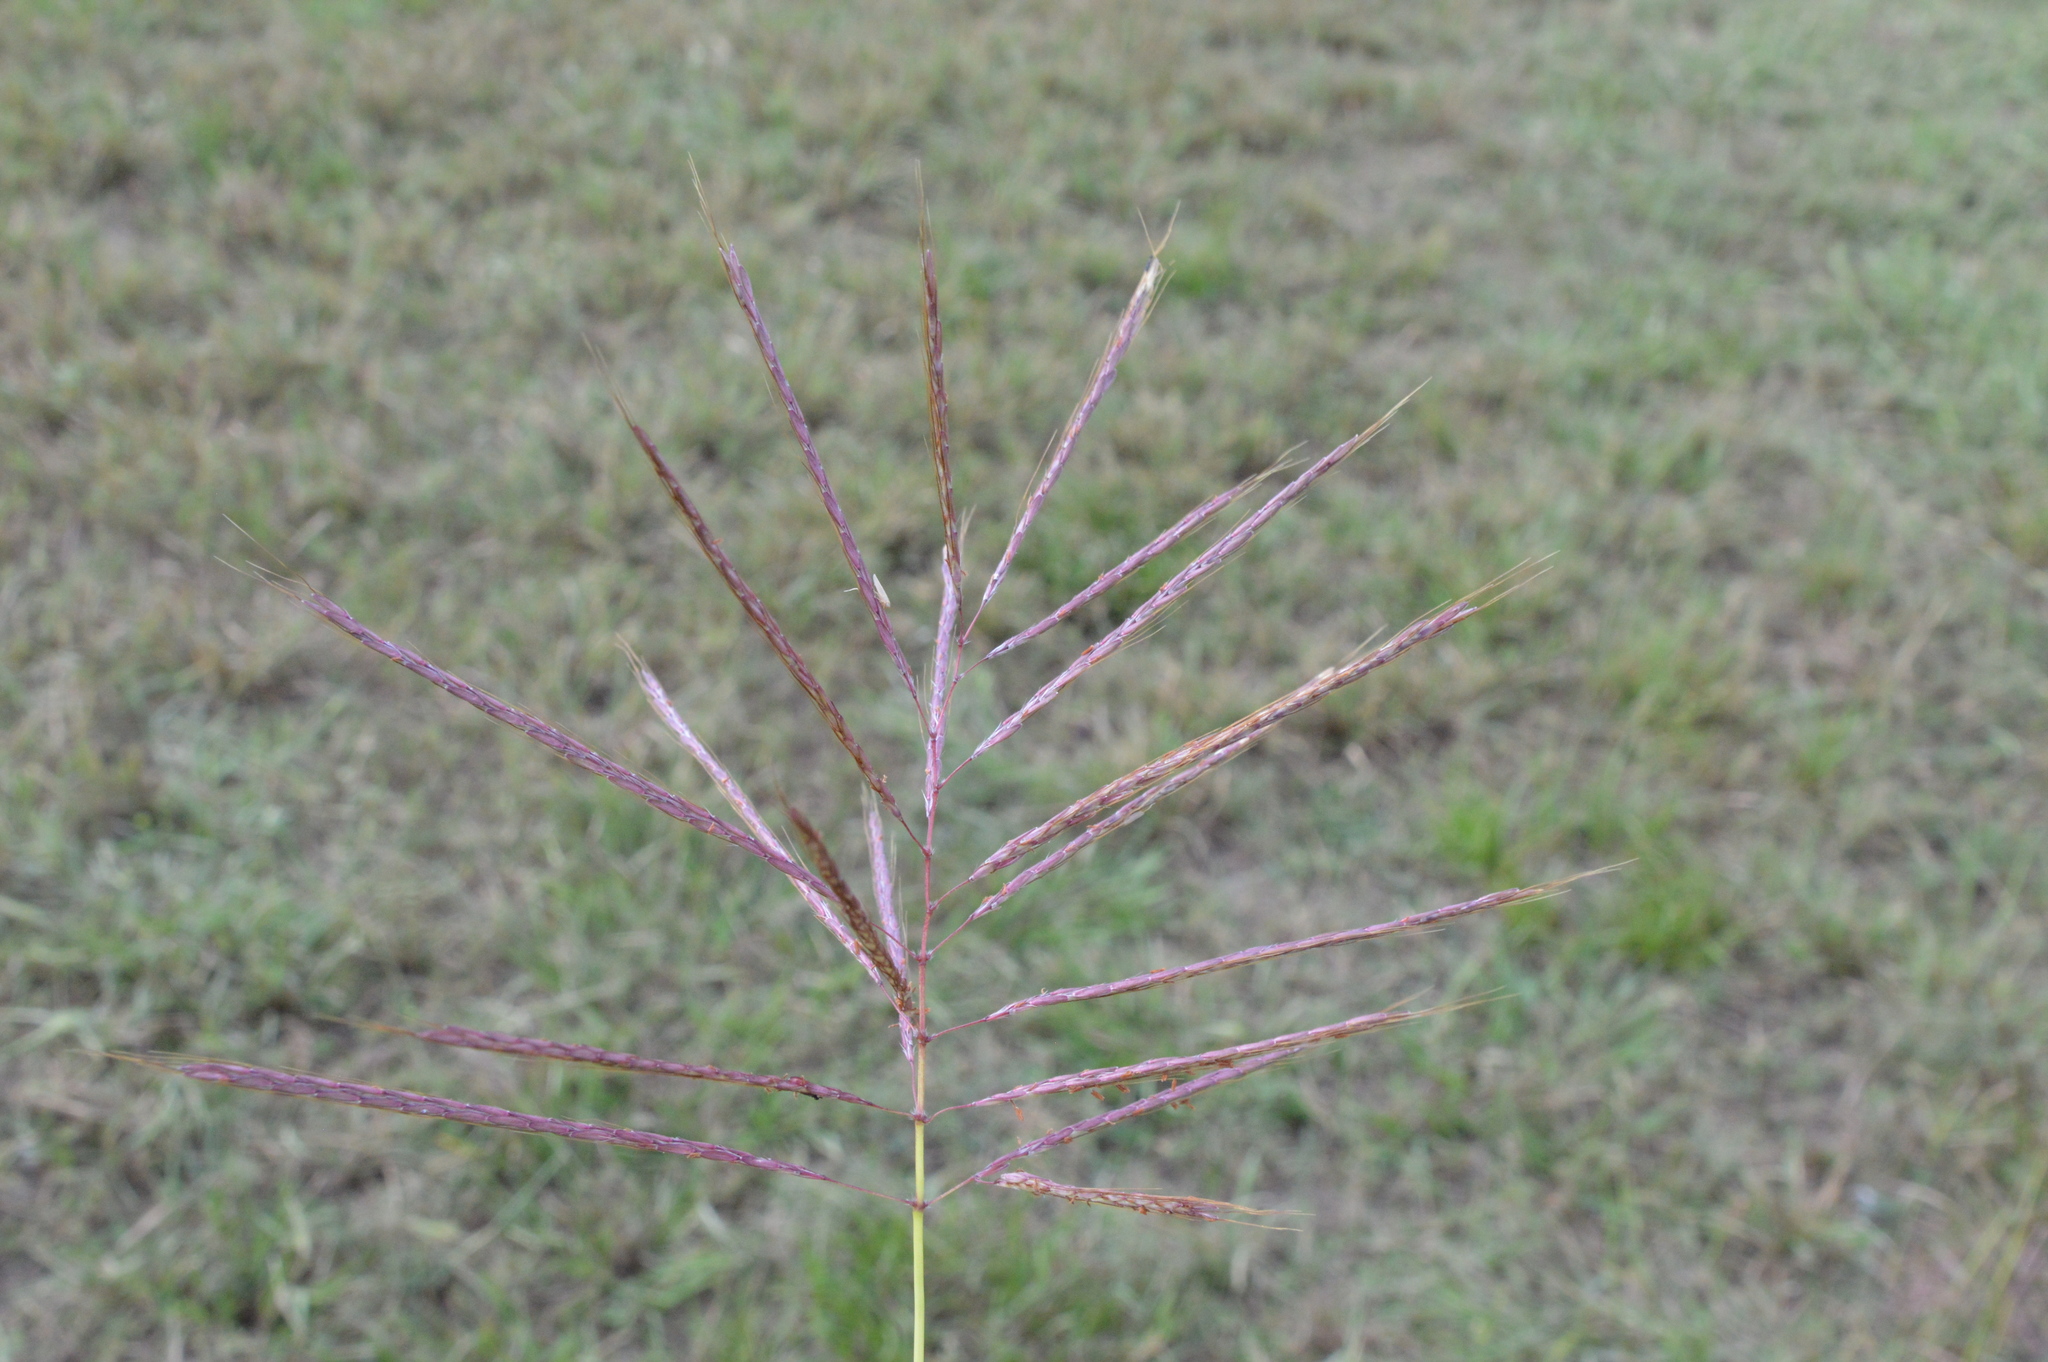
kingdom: Plantae
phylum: Tracheophyta
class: Liliopsida
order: Poales
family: Poaceae
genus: Bothriochloa
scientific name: Bothriochloa bladhii
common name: Caucasian bluestem
